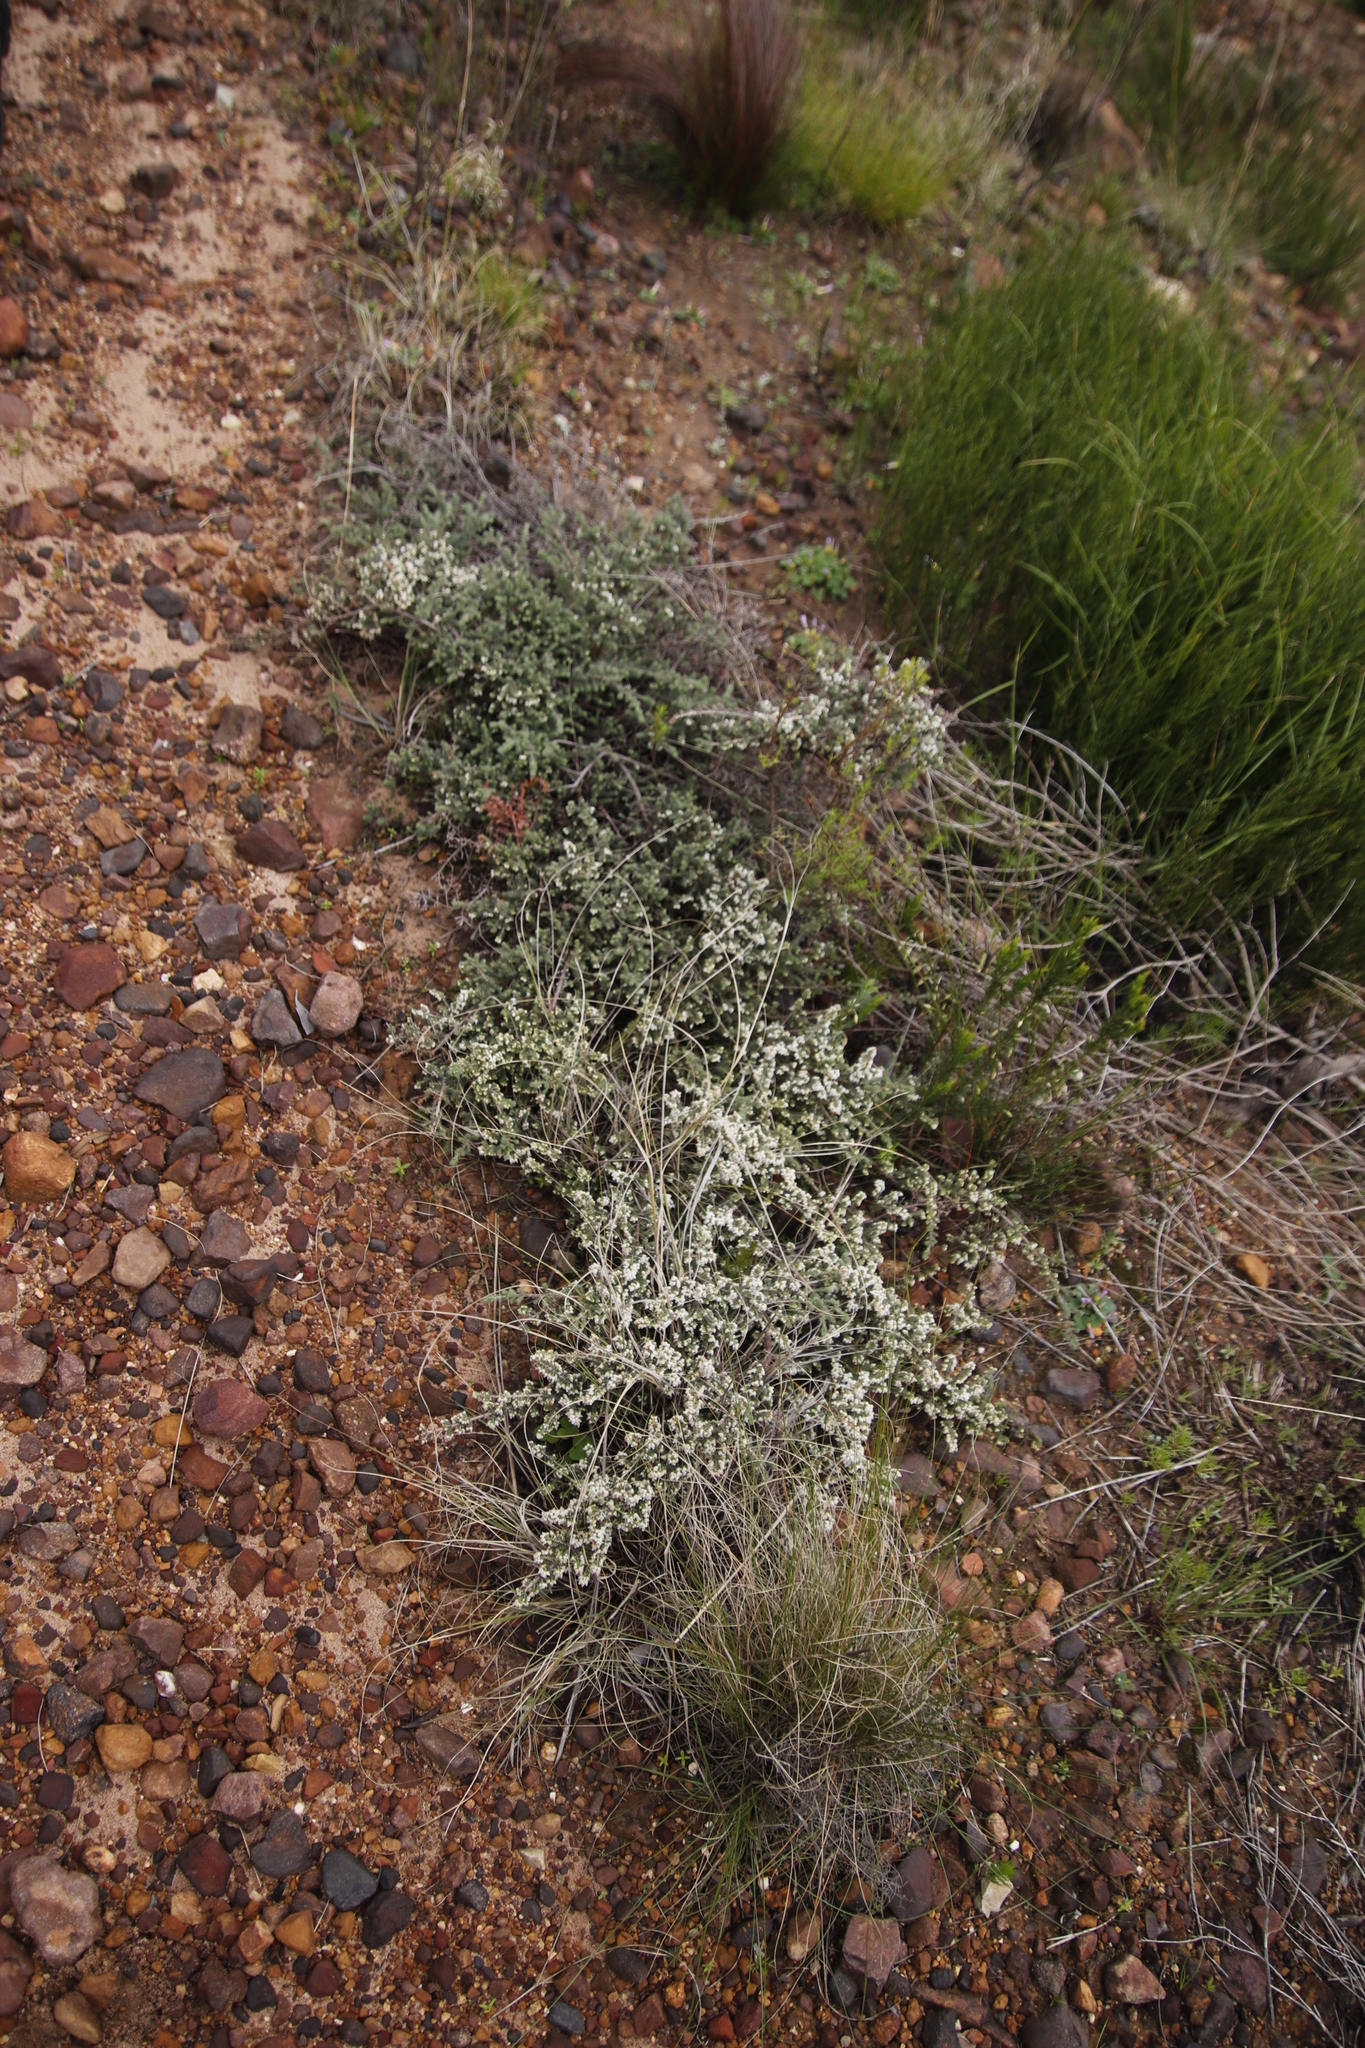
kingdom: Plantae
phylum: Tracheophyta
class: Magnoliopsida
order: Ericales
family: Ericaceae
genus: Erica
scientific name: Erica totta
